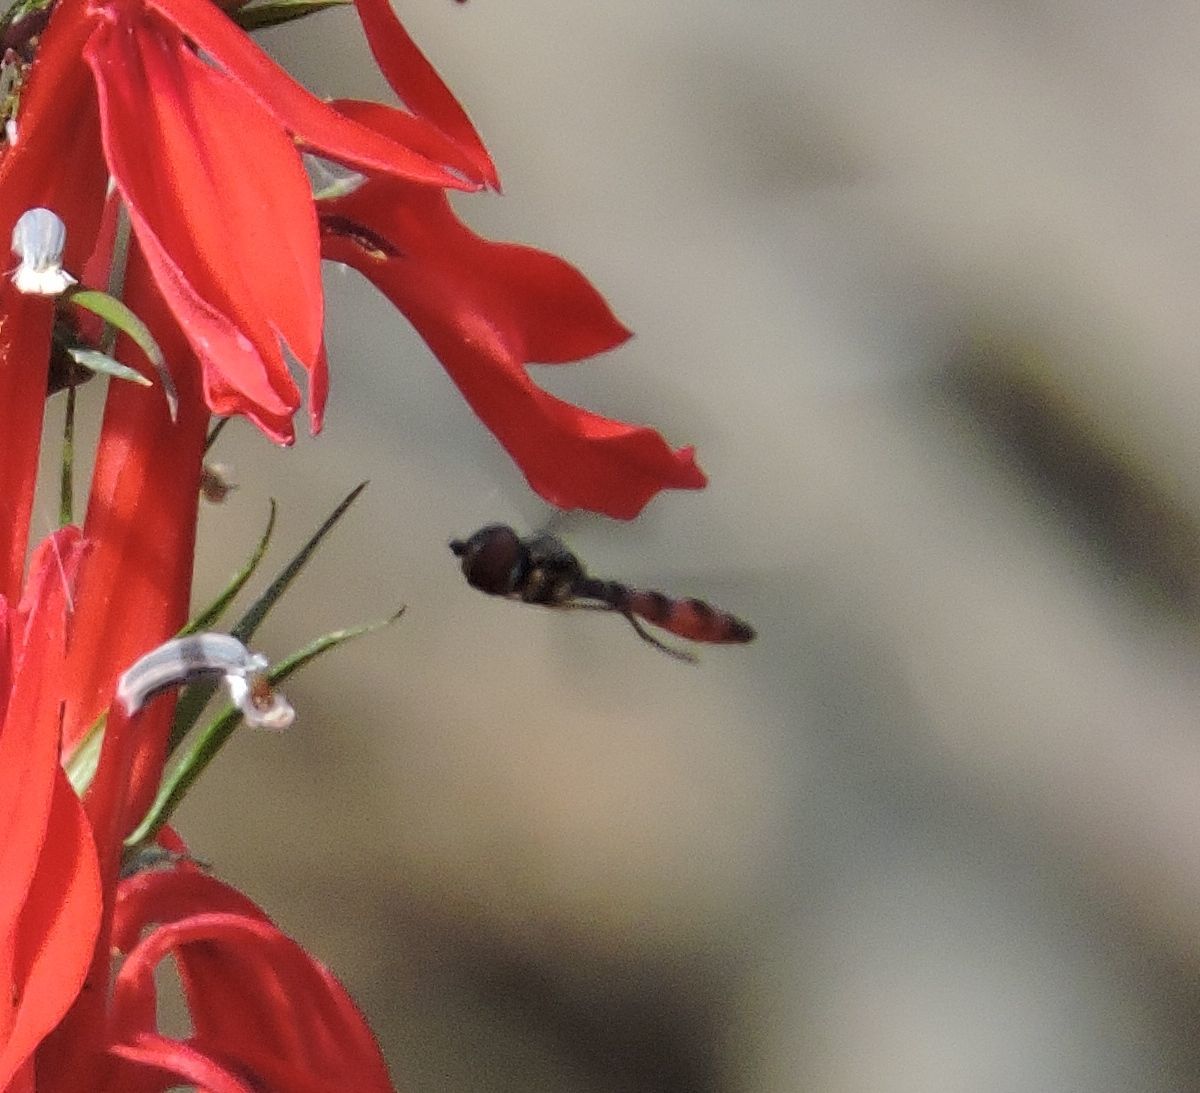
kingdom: Animalia
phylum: Arthropoda
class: Insecta
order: Diptera
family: Syrphidae
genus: Ocyptamus
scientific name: Ocyptamus fuscipennis
